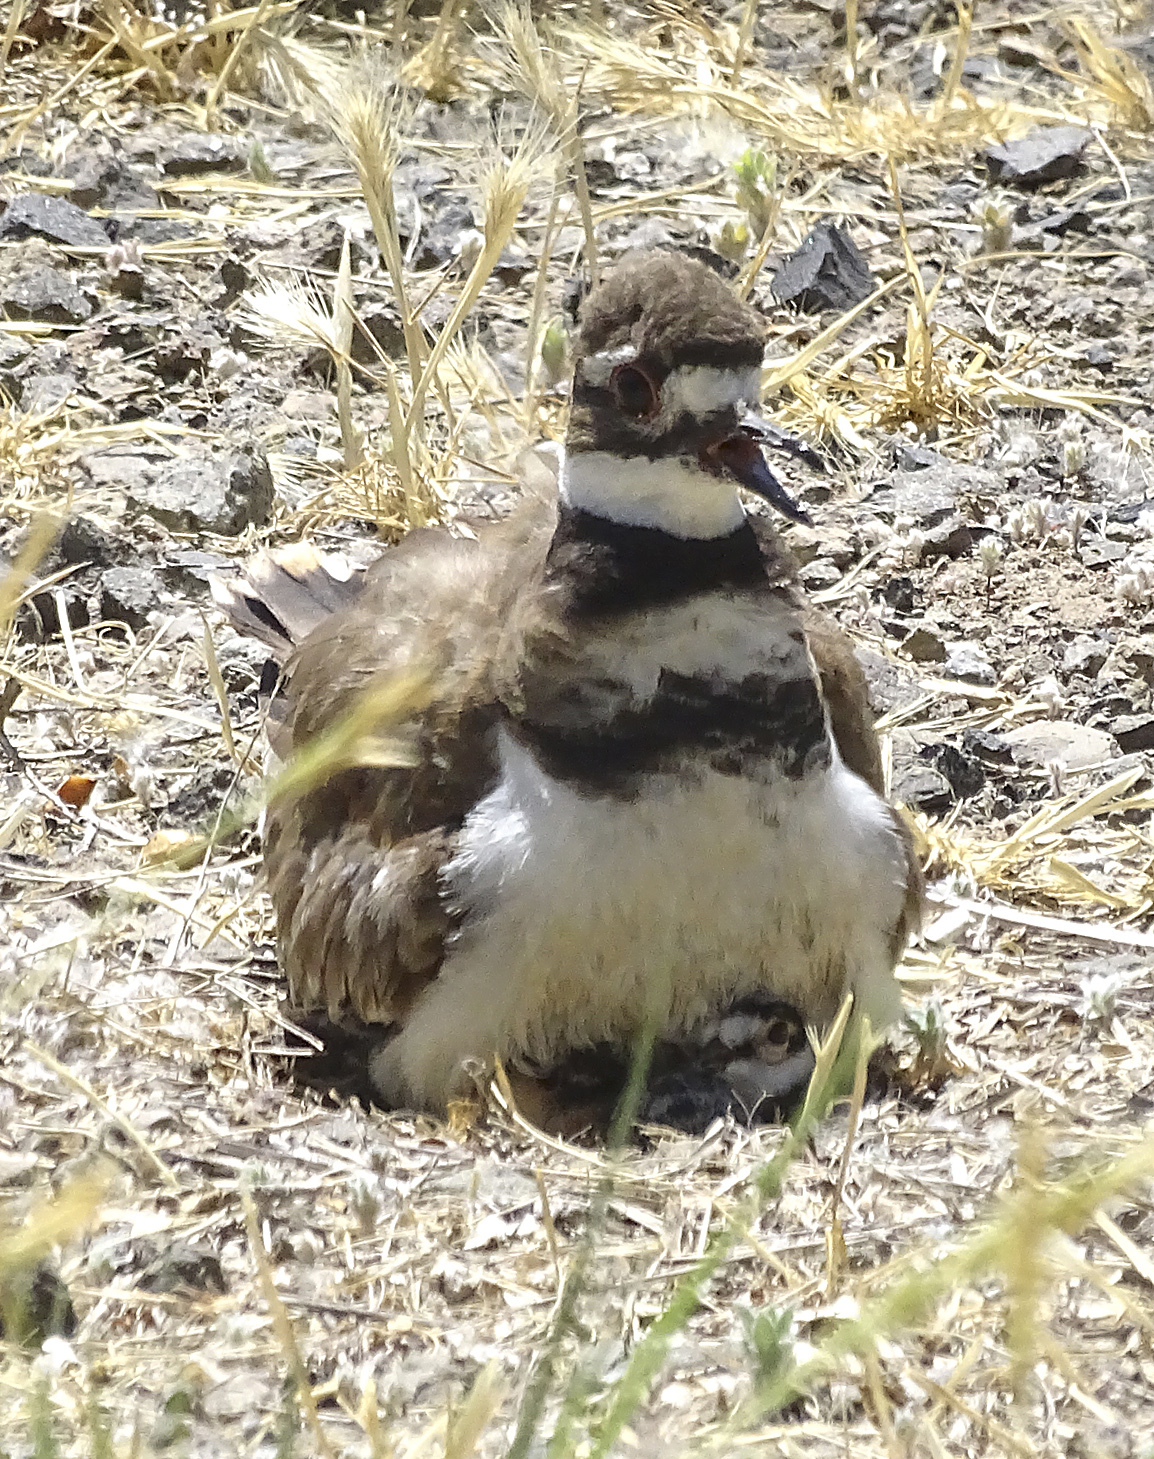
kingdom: Animalia
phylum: Chordata
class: Aves
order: Charadriiformes
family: Charadriidae
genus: Charadrius
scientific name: Charadrius vociferus
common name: Killdeer
